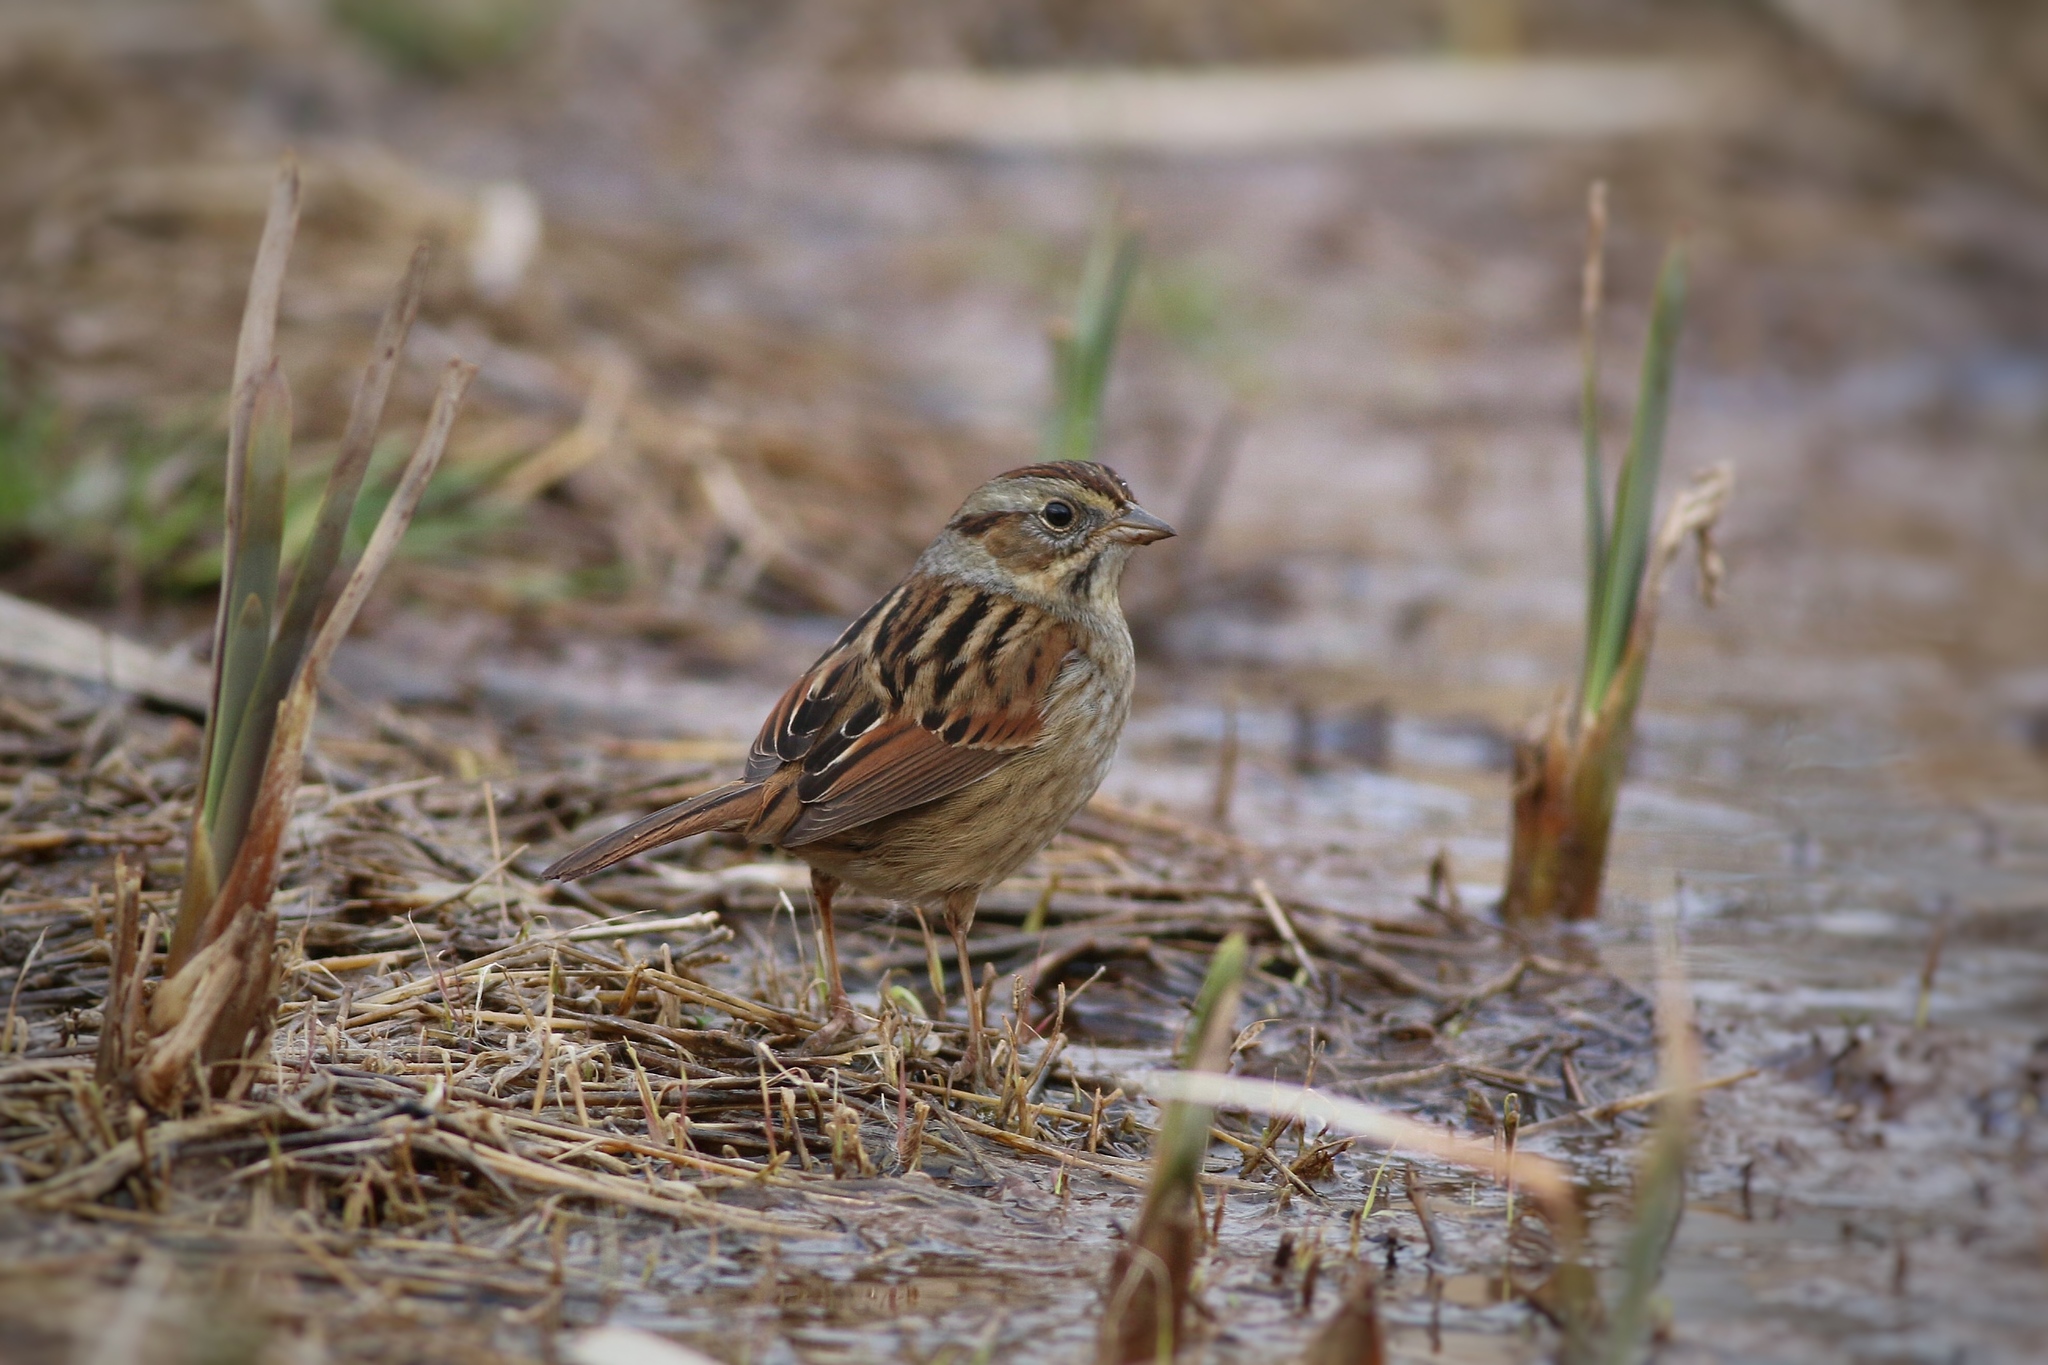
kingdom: Animalia
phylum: Chordata
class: Aves
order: Passeriformes
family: Passerellidae
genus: Melospiza
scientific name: Melospiza georgiana
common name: Swamp sparrow
